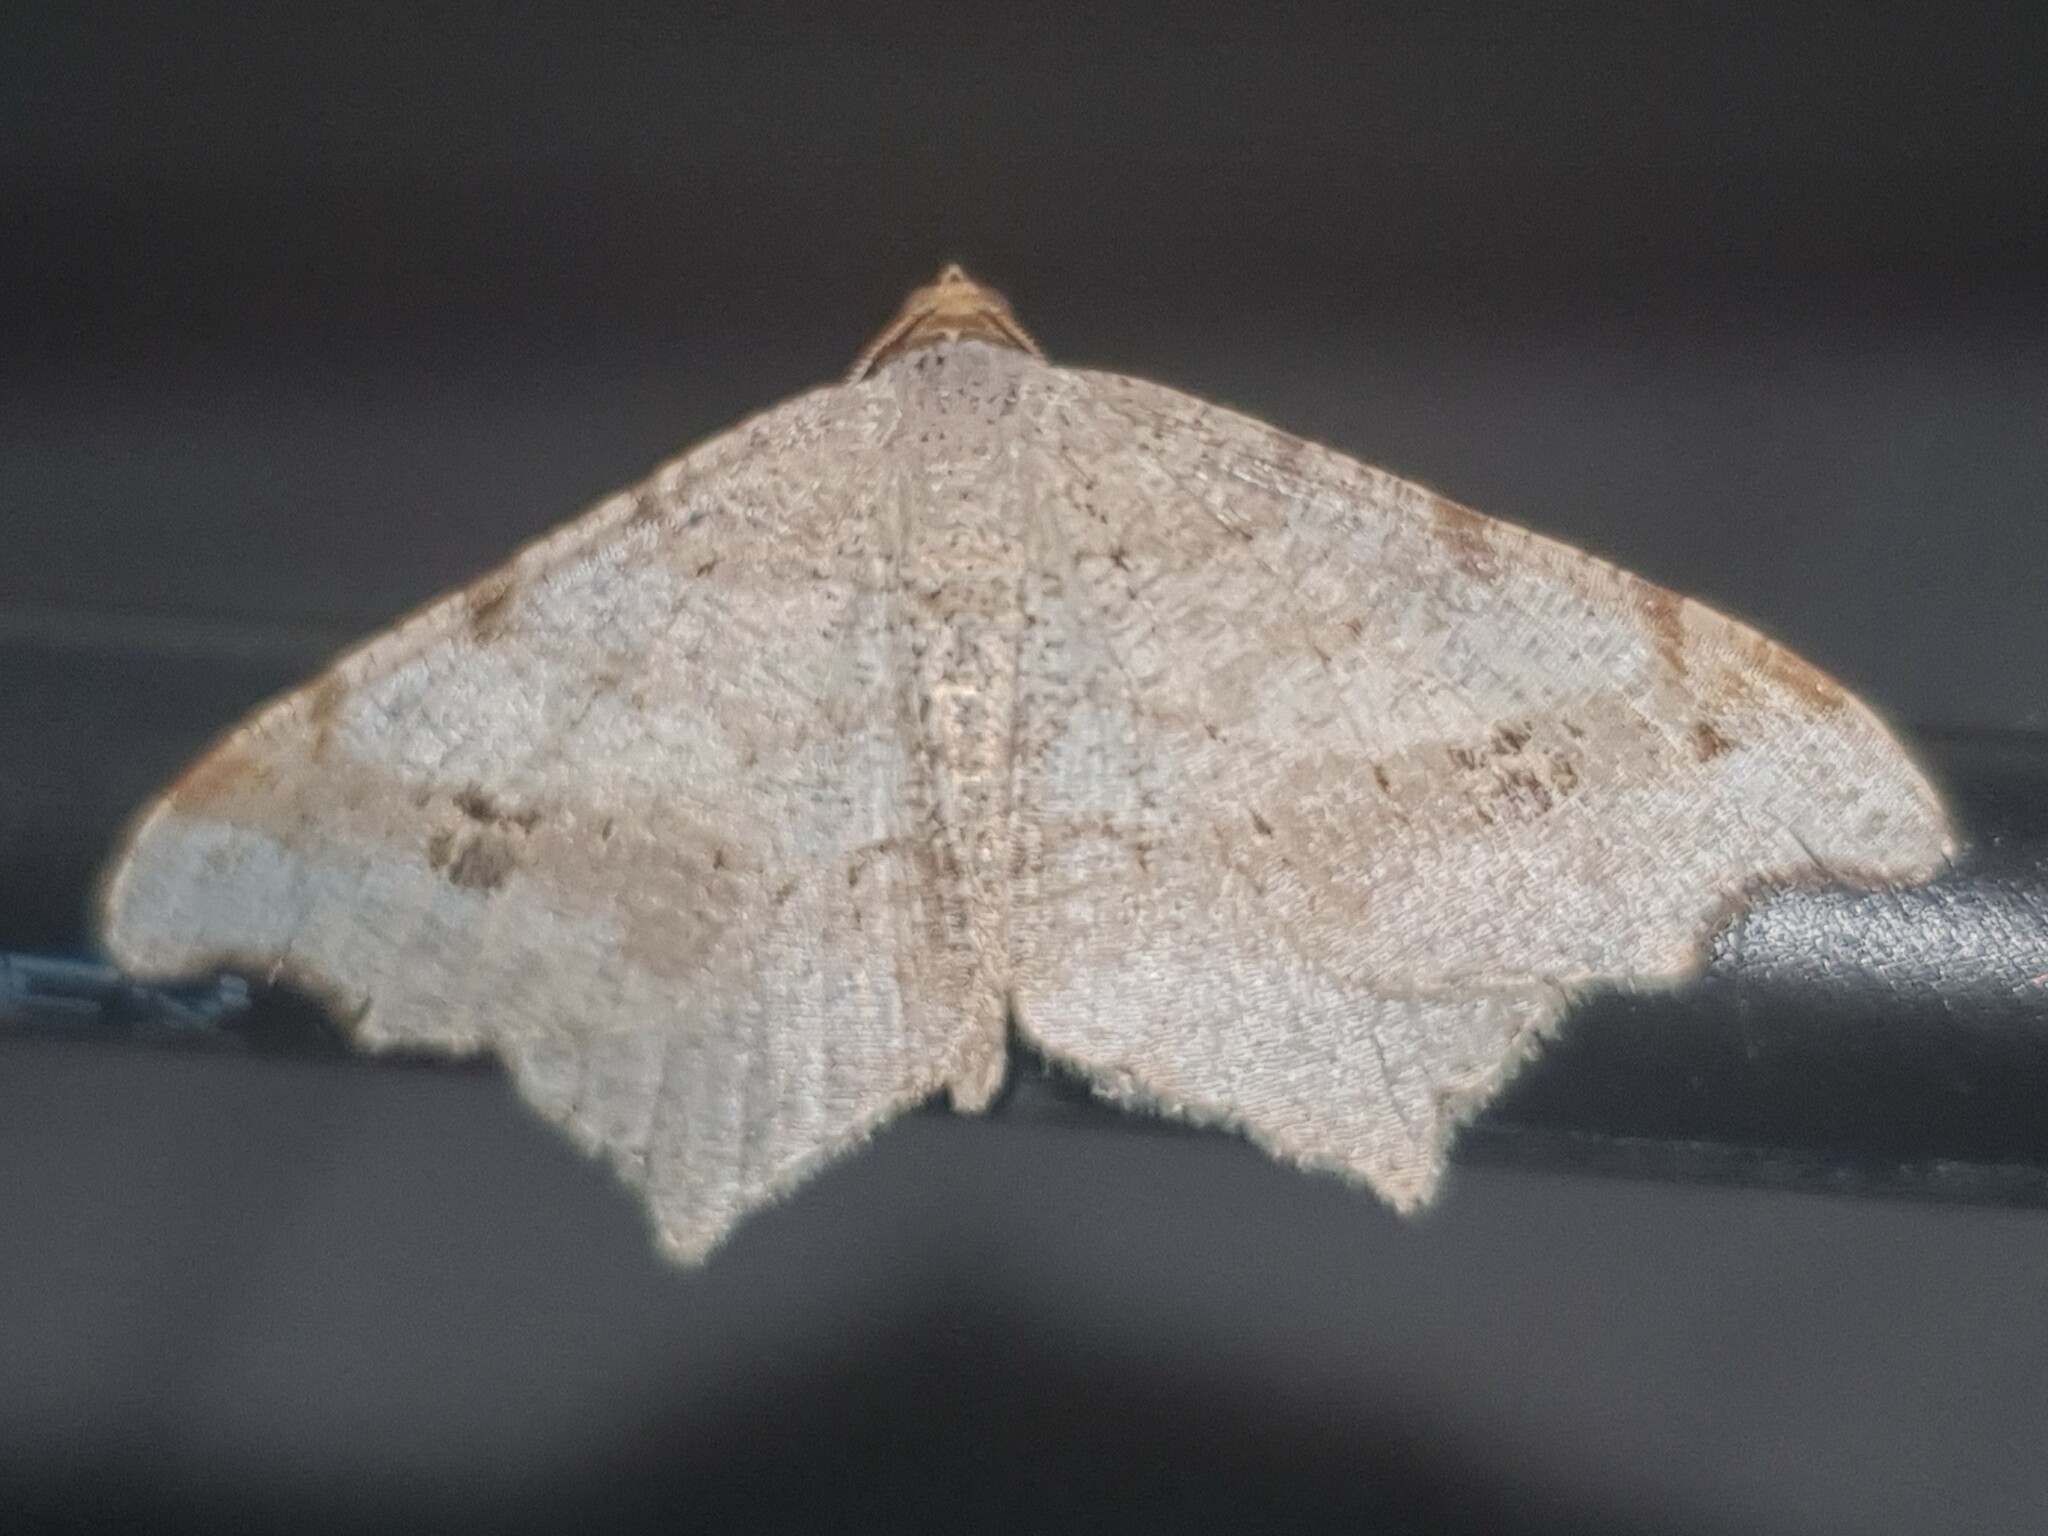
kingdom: Animalia
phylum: Arthropoda
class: Insecta
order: Lepidoptera
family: Geometridae
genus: Macaria
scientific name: Macaria alternata
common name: Sharp-angled peacock
